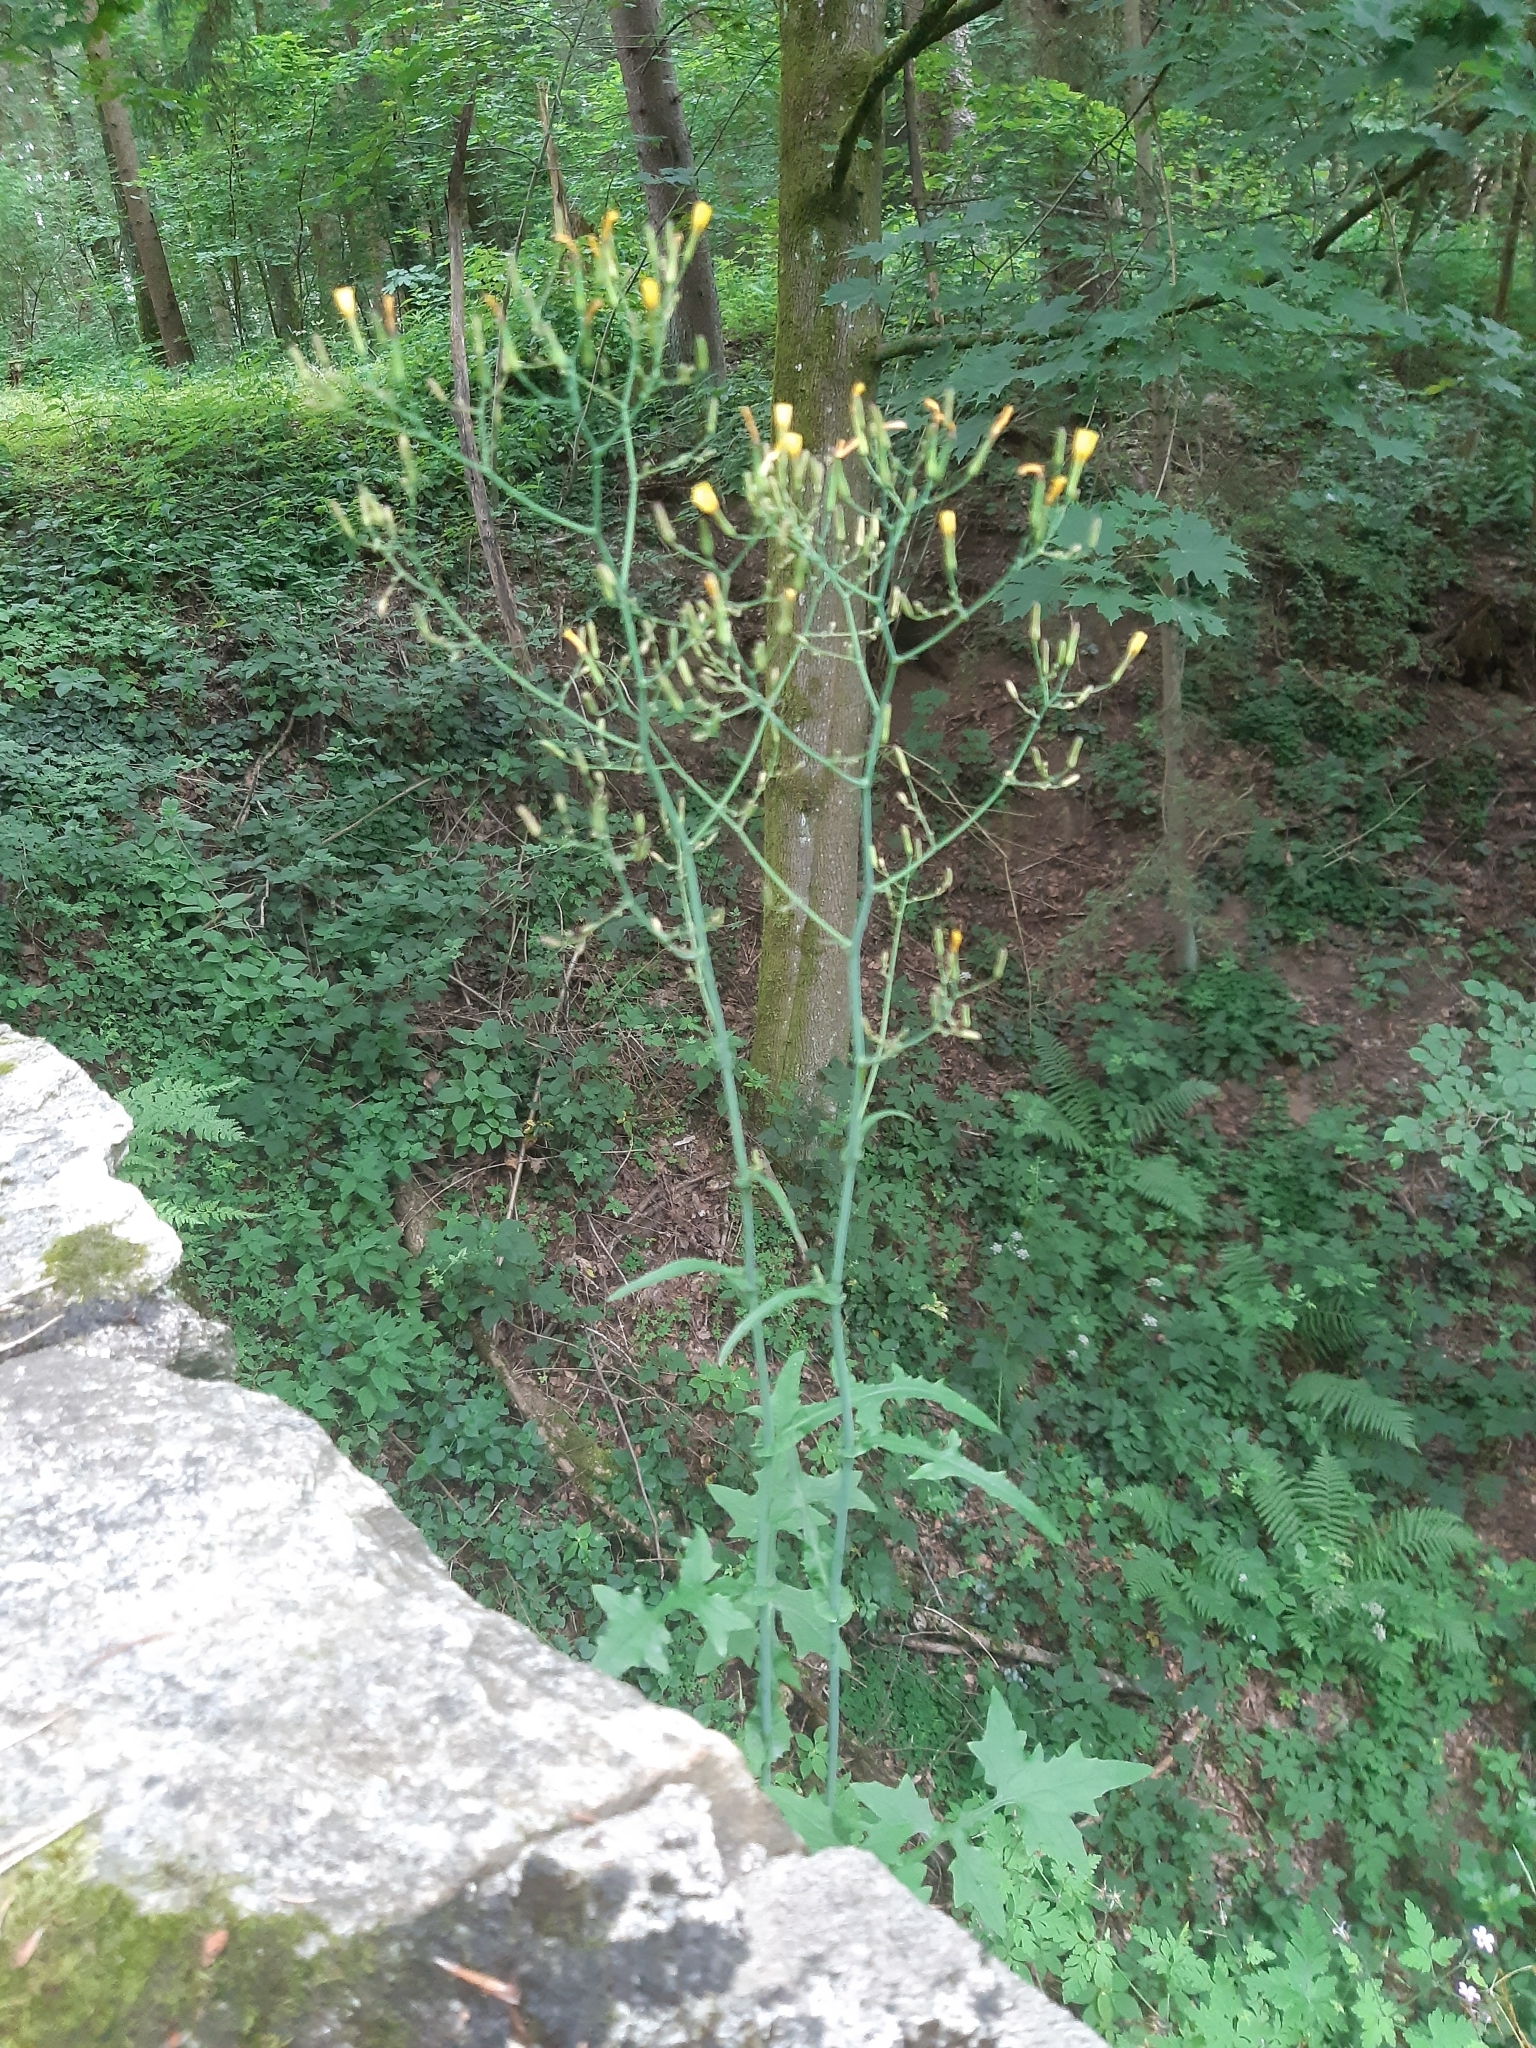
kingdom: Plantae
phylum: Tracheophyta
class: Magnoliopsida
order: Asterales
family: Asteraceae
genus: Mycelis
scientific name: Mycelis muralis
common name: Wall lettuce
